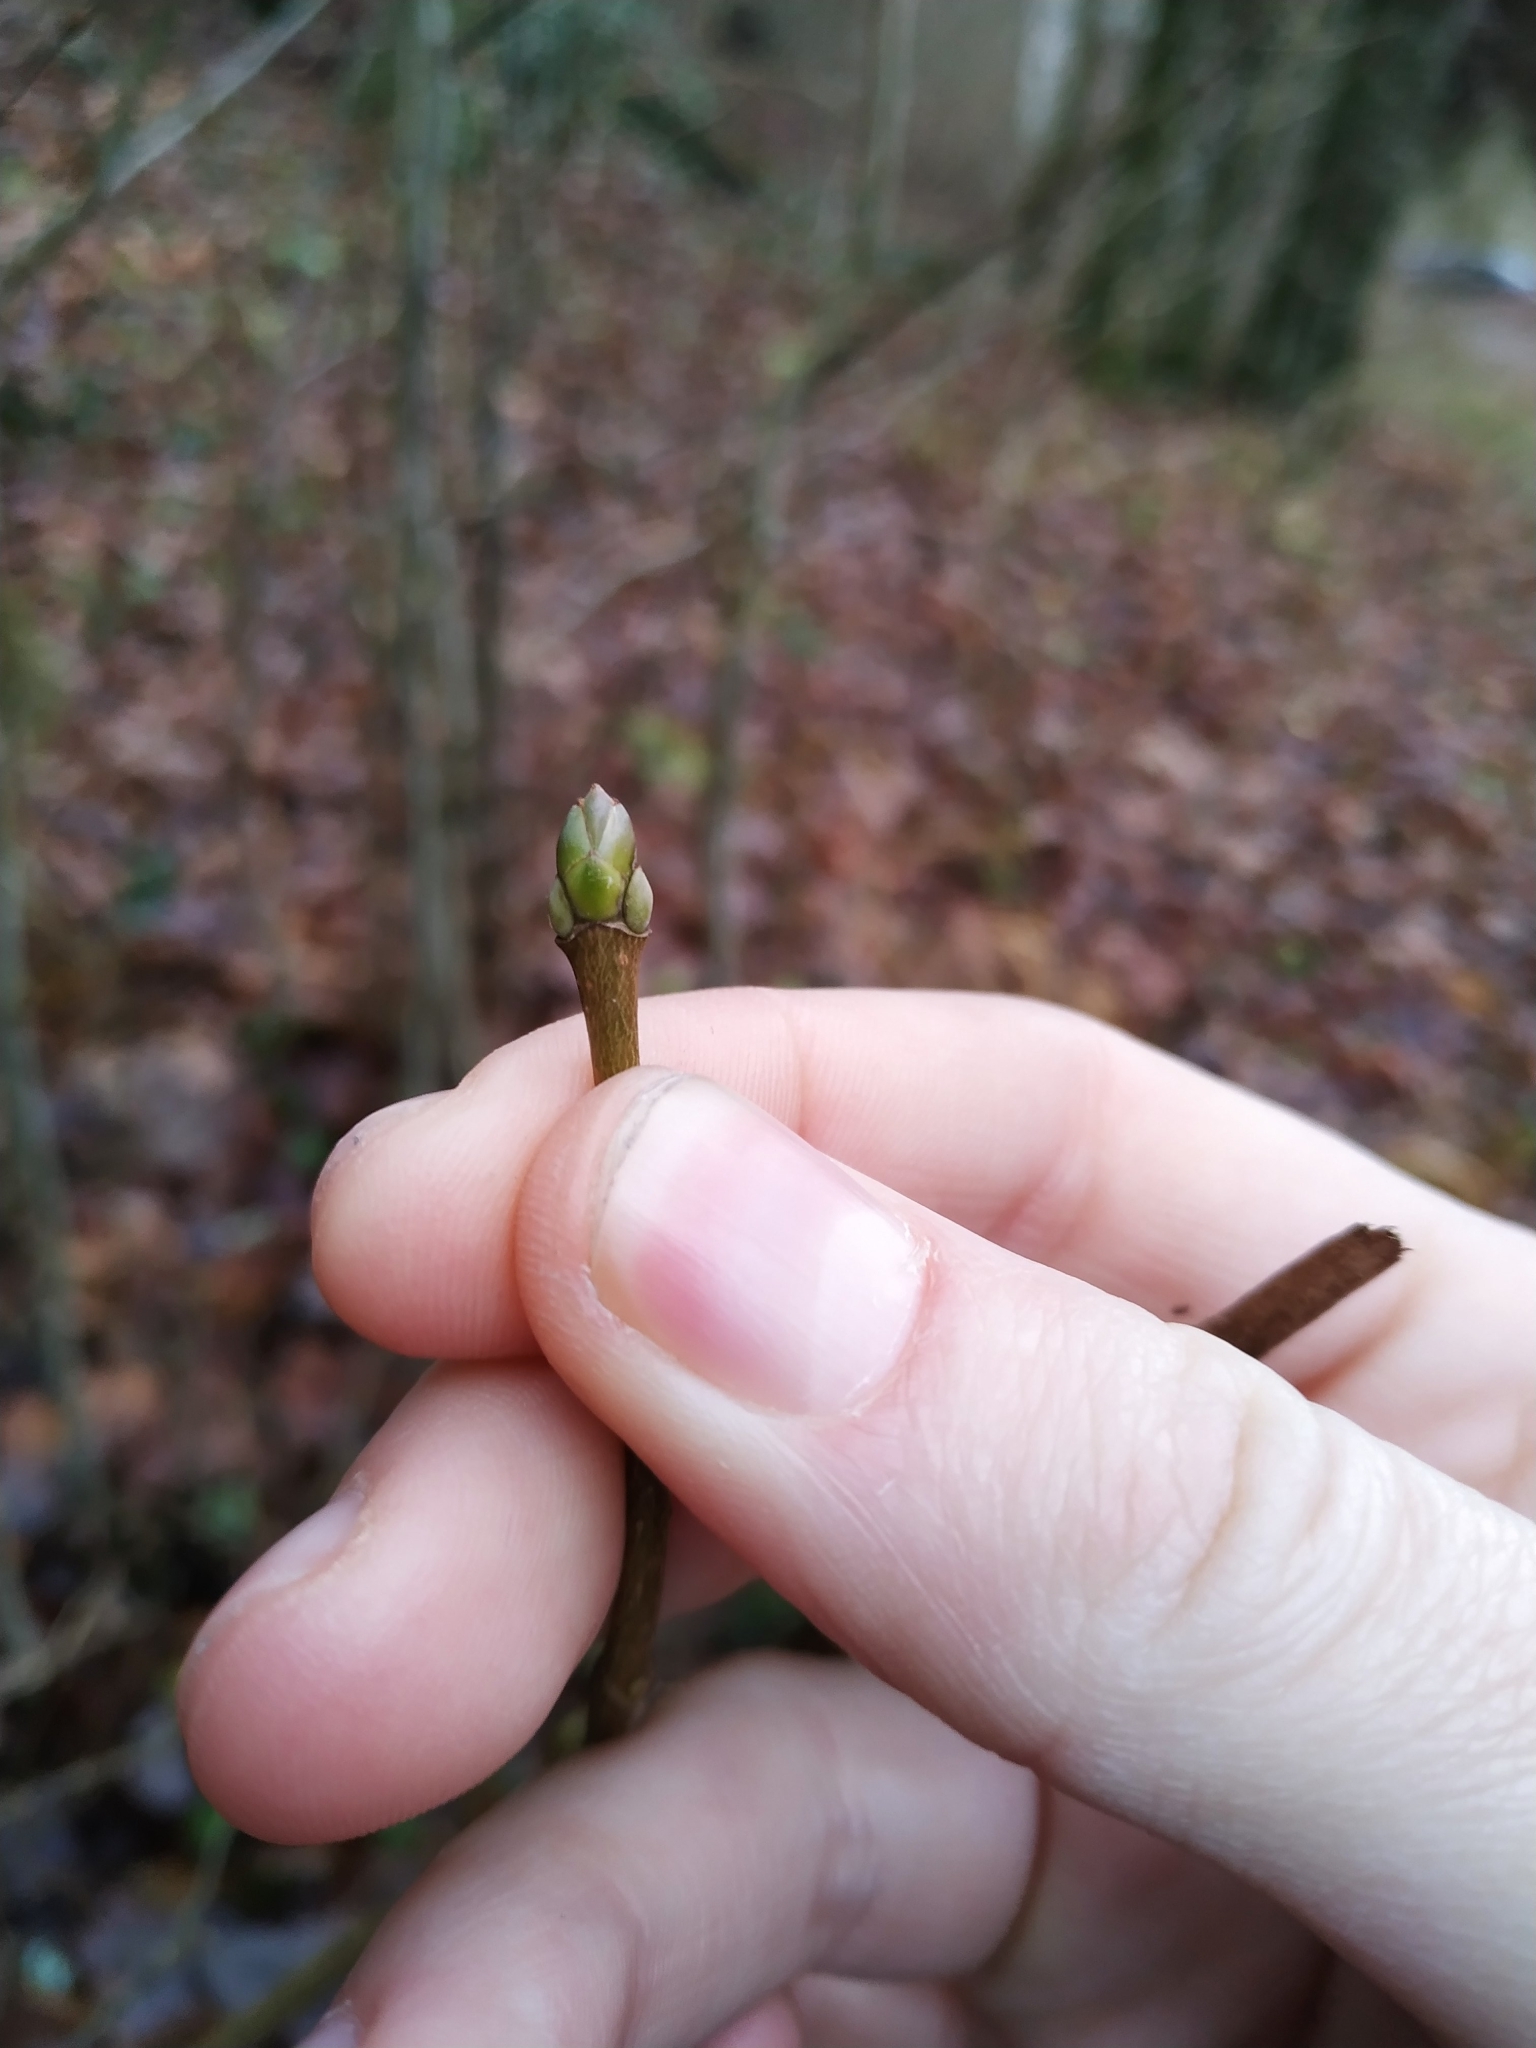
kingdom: Plantae
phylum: Tracheophyta
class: Magnoliopsida
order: Sapindales
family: Sapindaceae
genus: Acer
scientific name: Acer pseudoplatanus
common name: Sycamore
